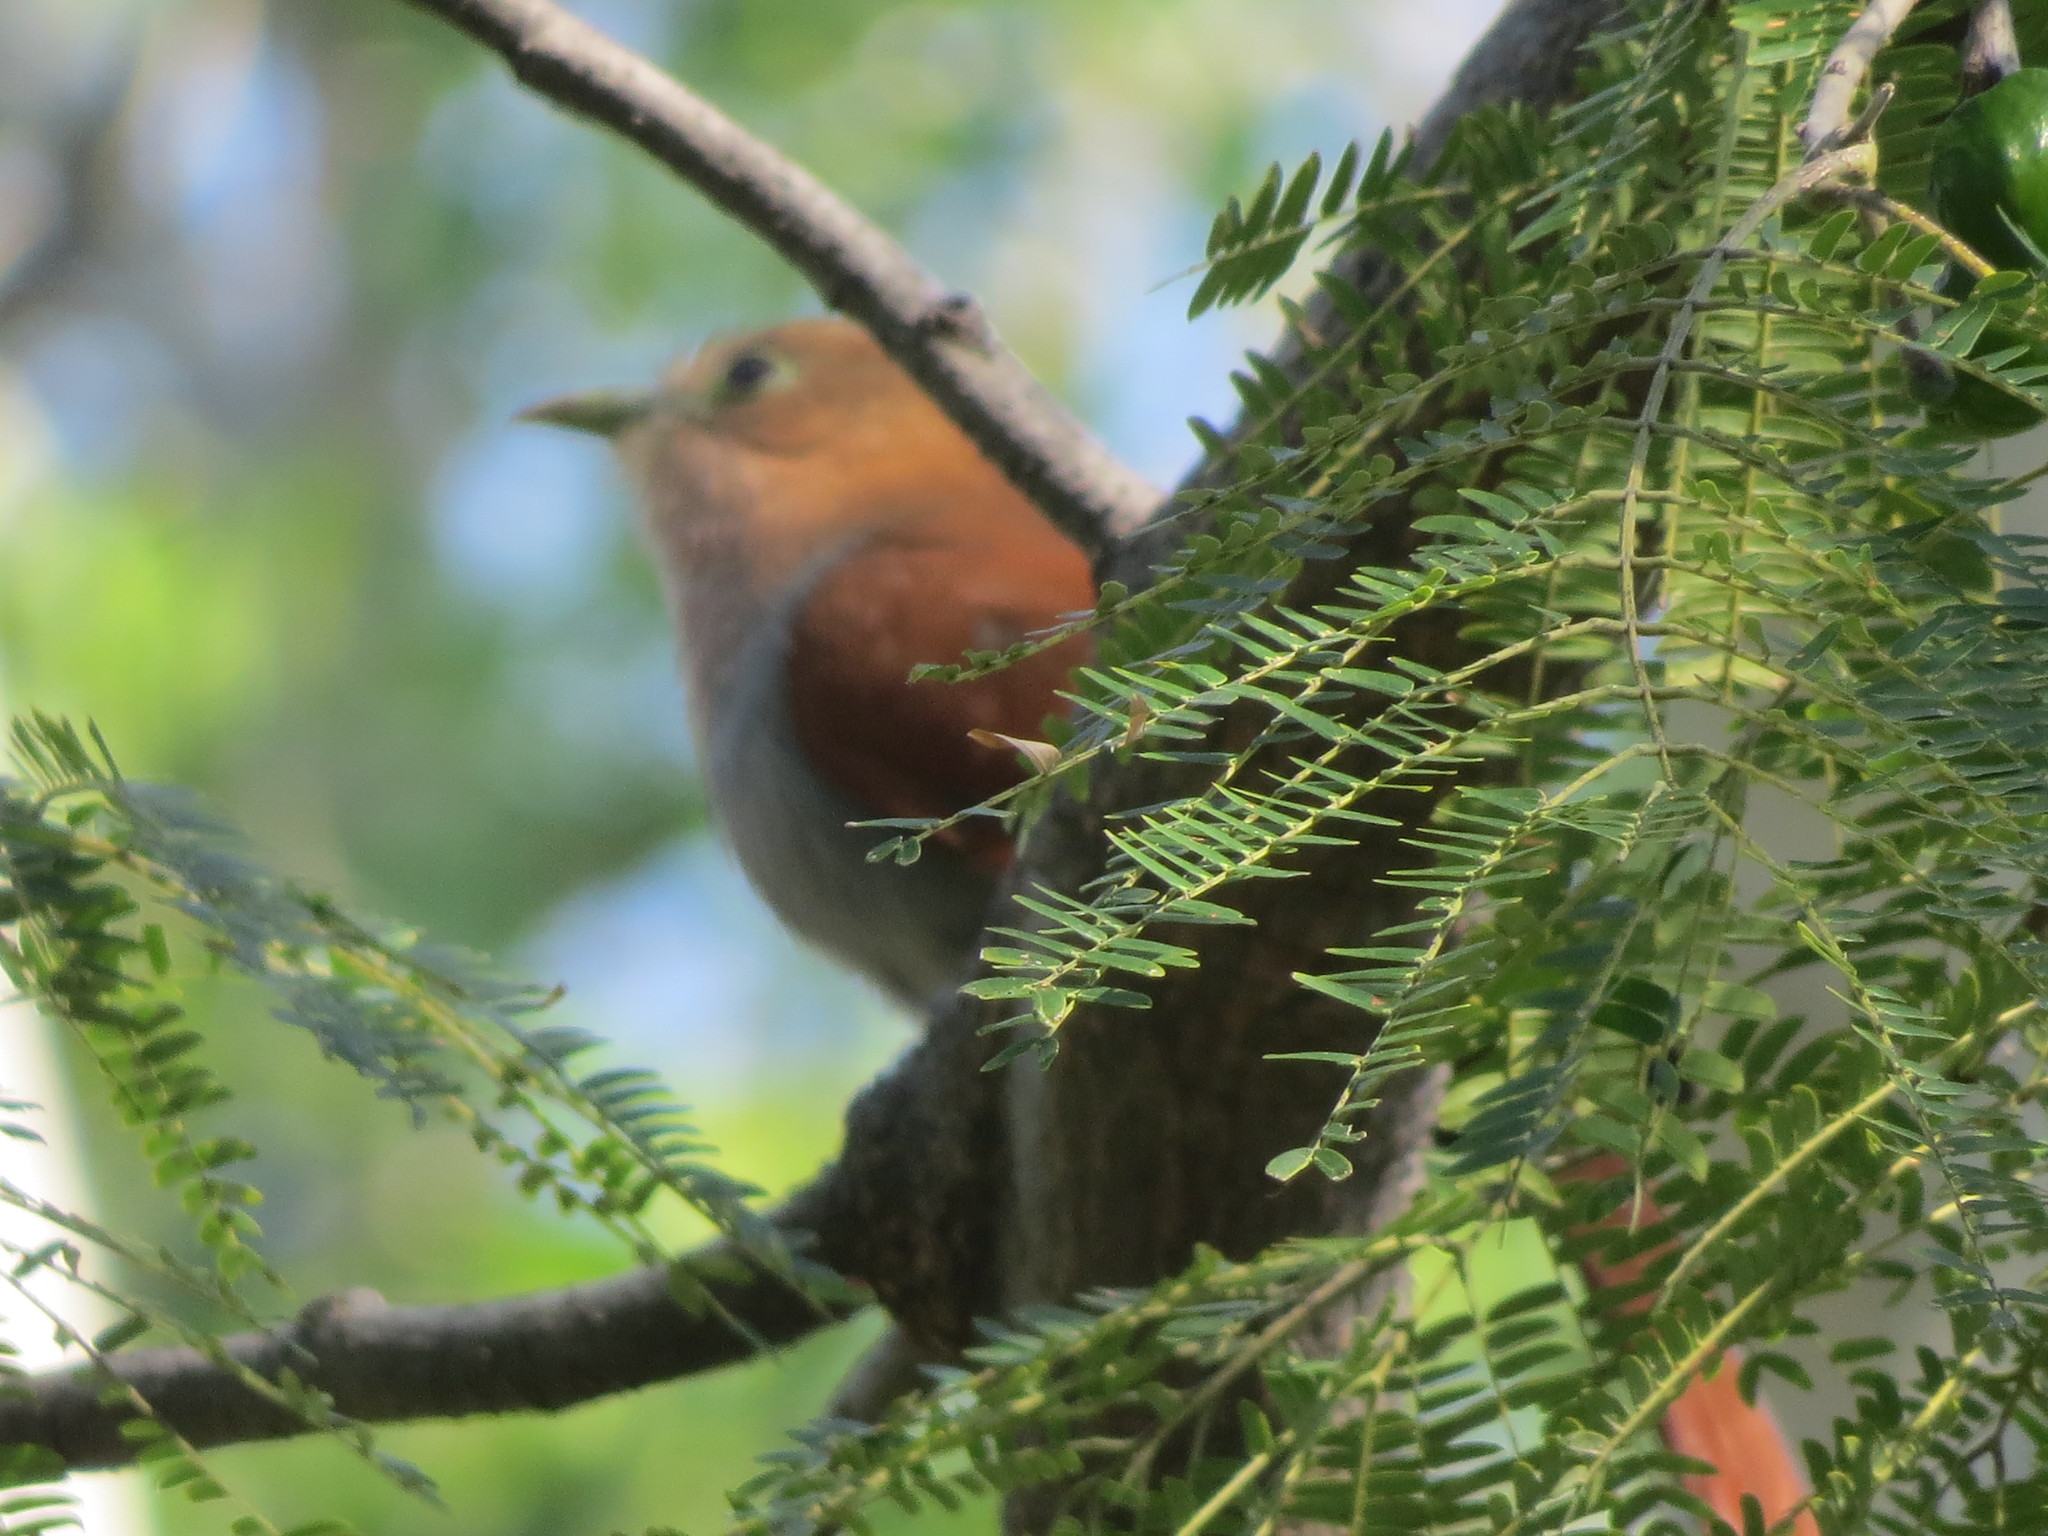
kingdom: Animalia
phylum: Chordata
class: Aves
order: Cuculiformes
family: Cuculidae
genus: Piaya
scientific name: Piaya cayana
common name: Squirrel cuckoo
